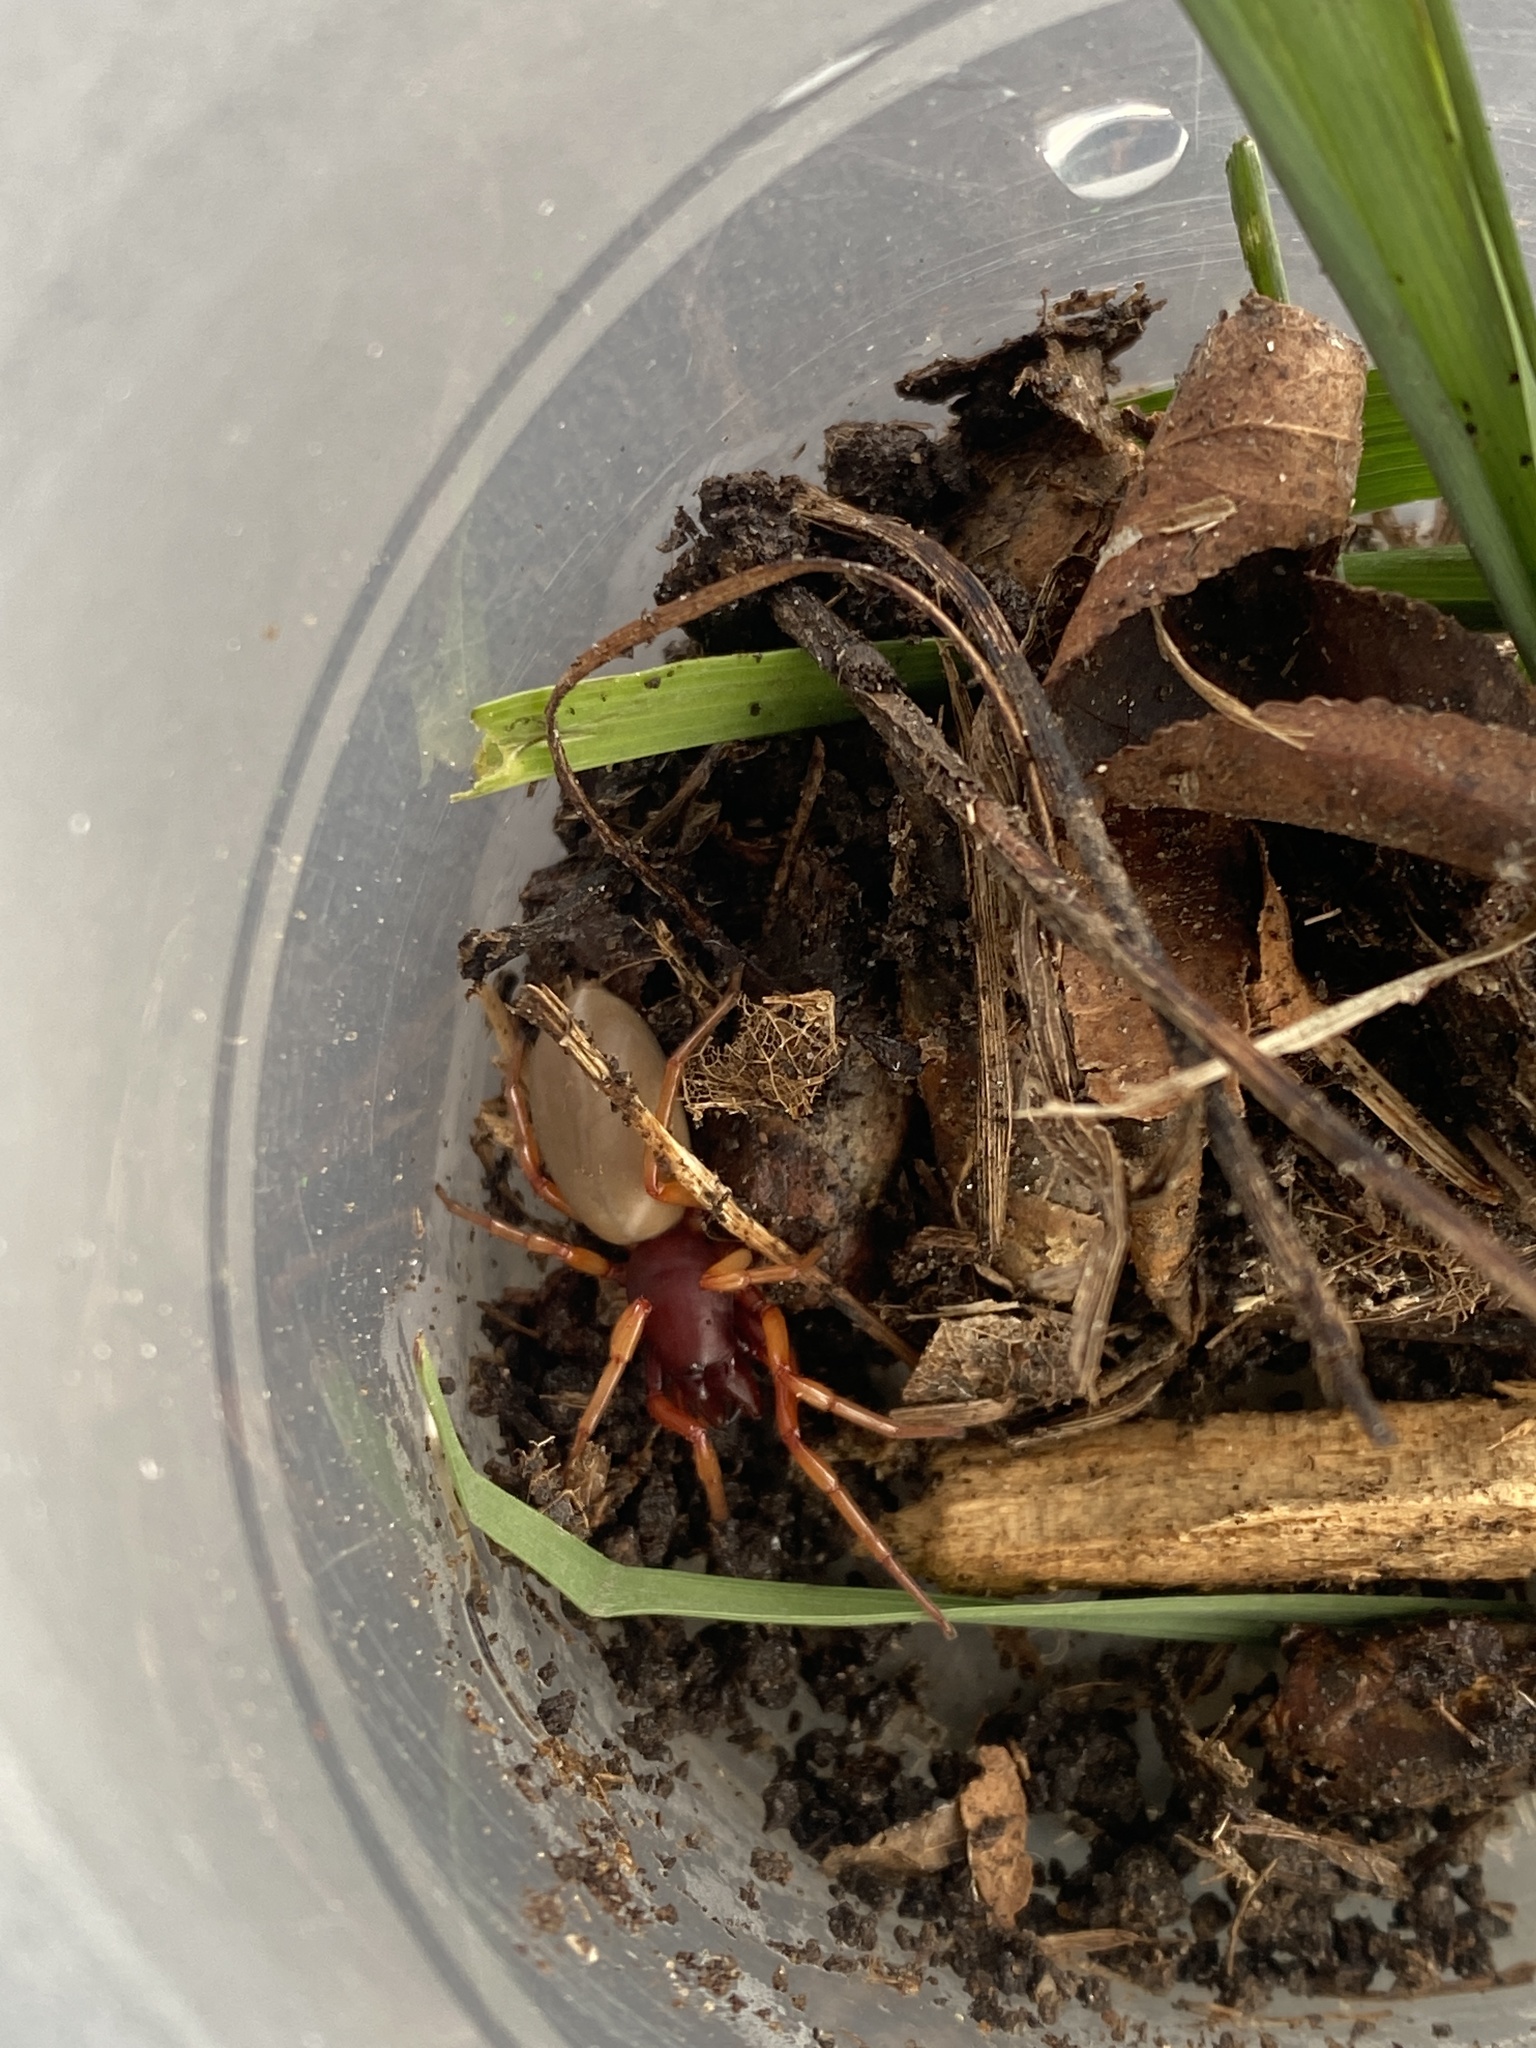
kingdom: Animalia
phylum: Arthropoda
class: Arachnida
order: Araneae
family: Dysderidae
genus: Dysdera
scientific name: Dysdera crocata
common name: Woodlouse spider
